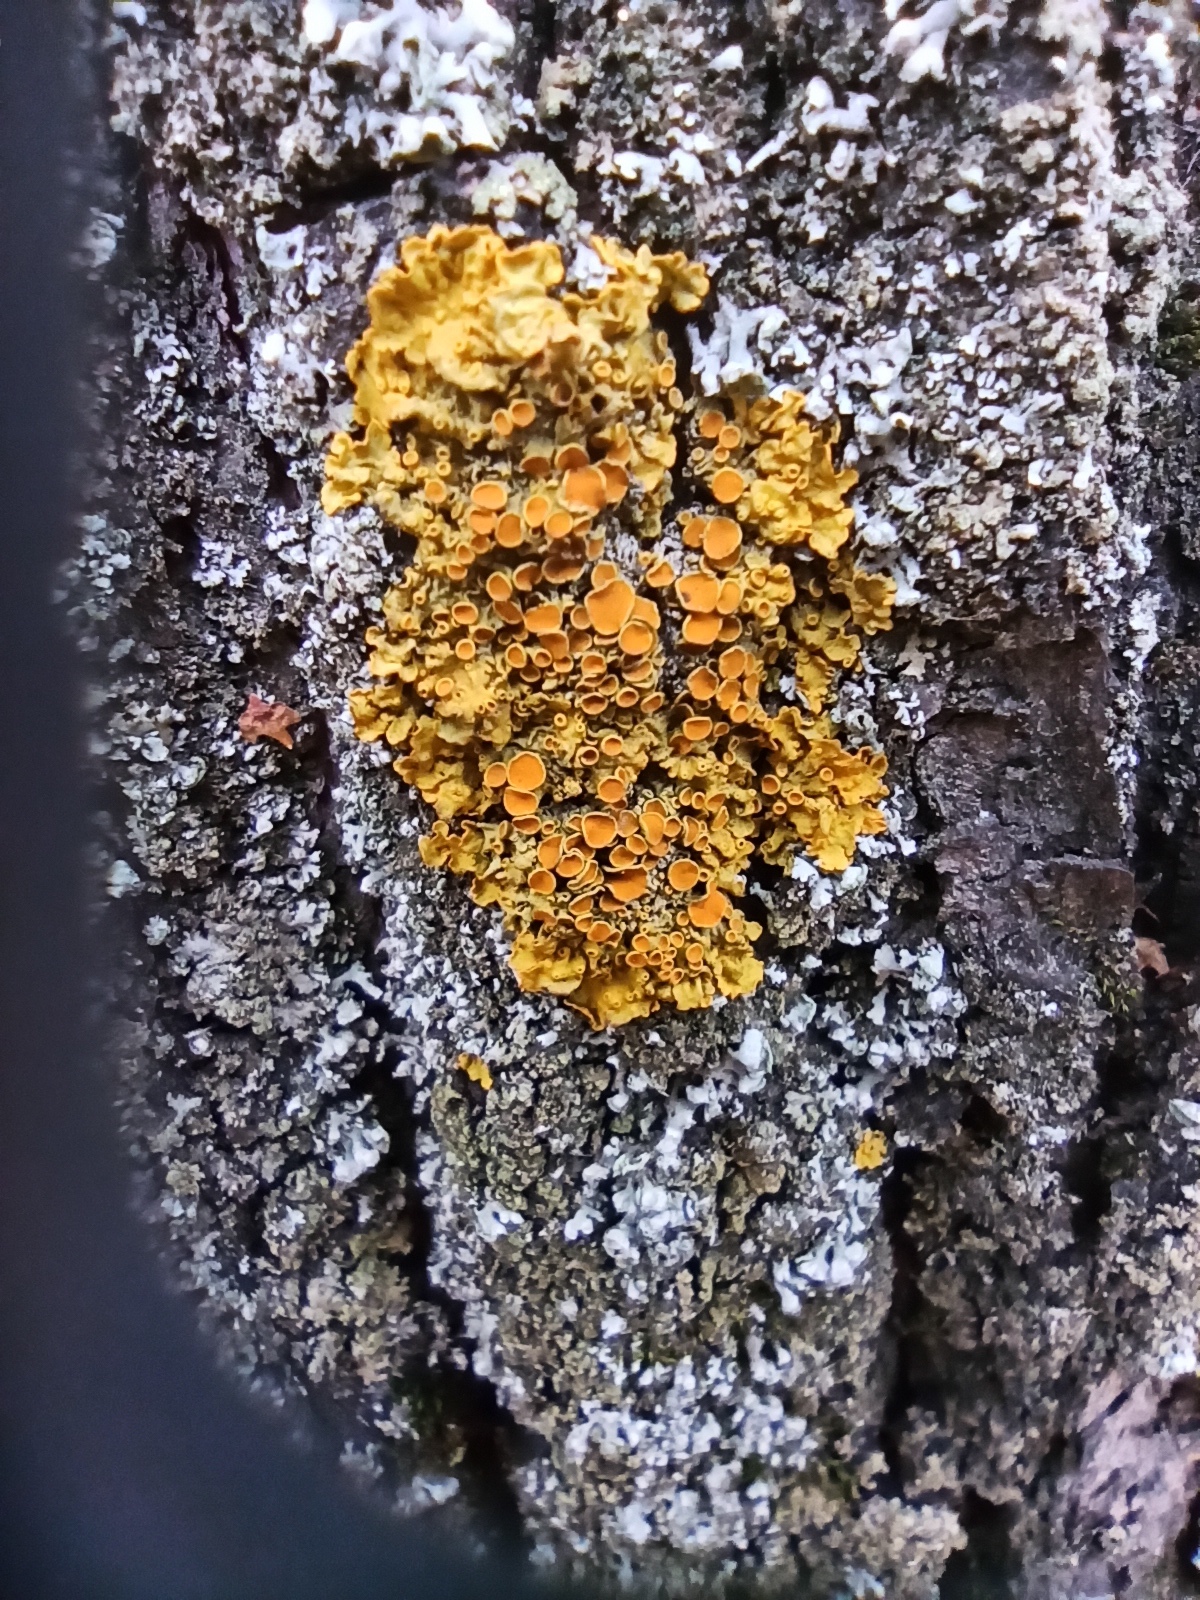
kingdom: Fungi
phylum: Ascomycota
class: Lecanoromycetes
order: Teloschistales
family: Teloschistaceae
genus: Xanthoria
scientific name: Xanthoria parietina
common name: Common orange lichen
